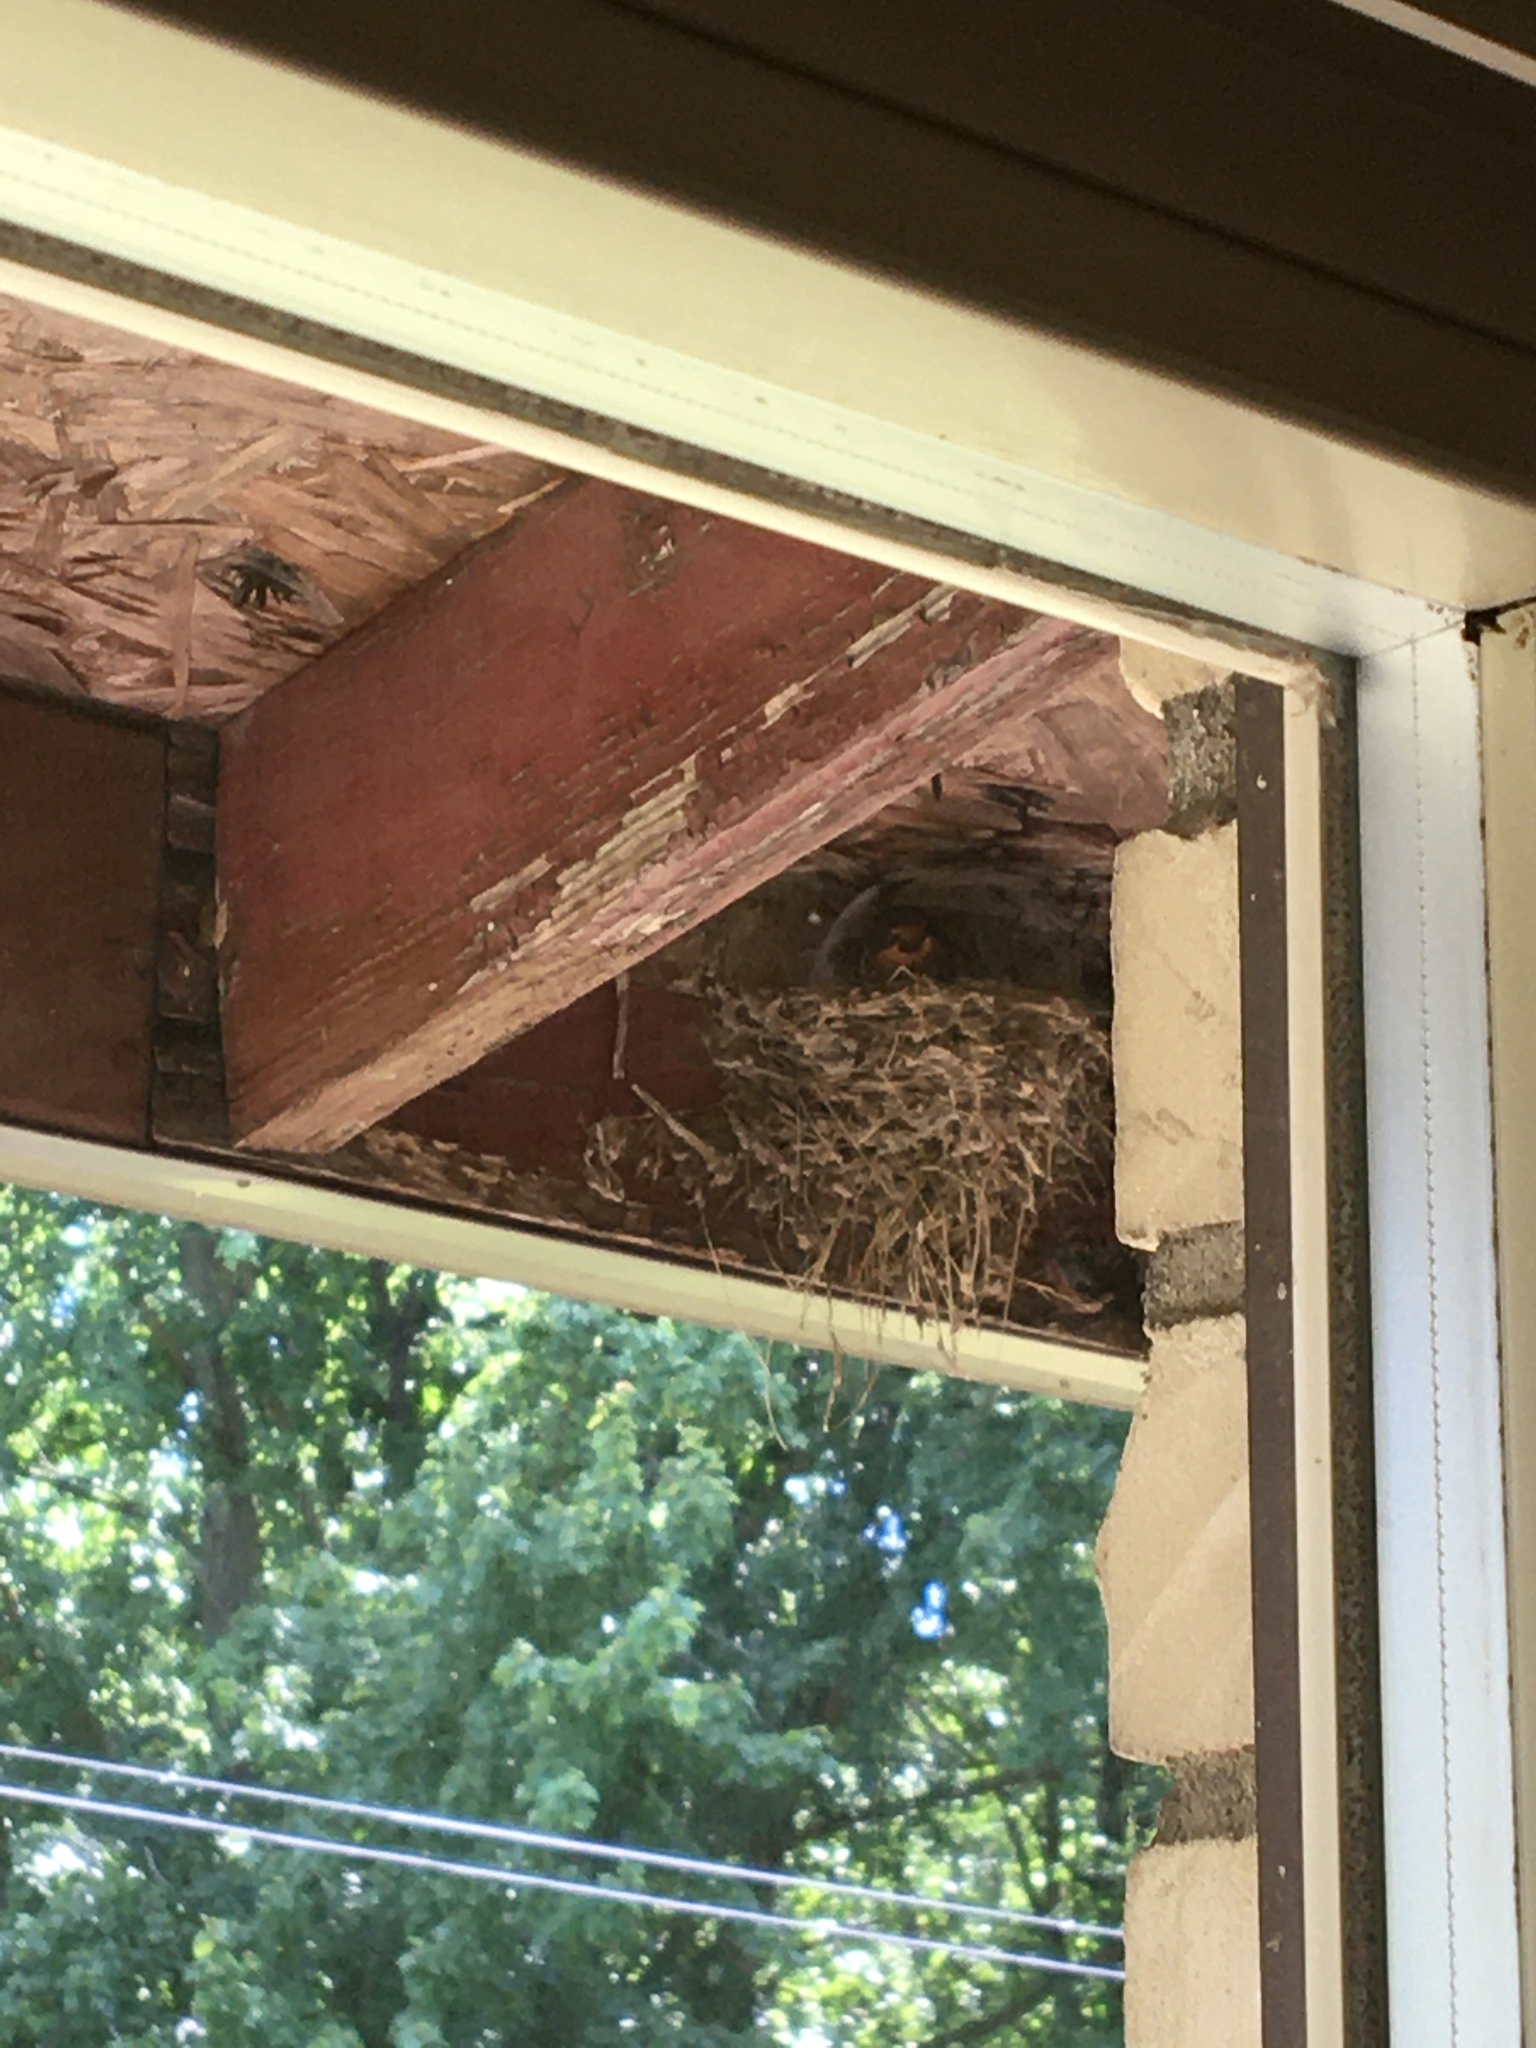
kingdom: Animalia
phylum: Chordata
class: Aves
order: Passeriformes
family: Hirundinidae
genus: Hirundo
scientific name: Hirundo rustica
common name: Barn swallow
